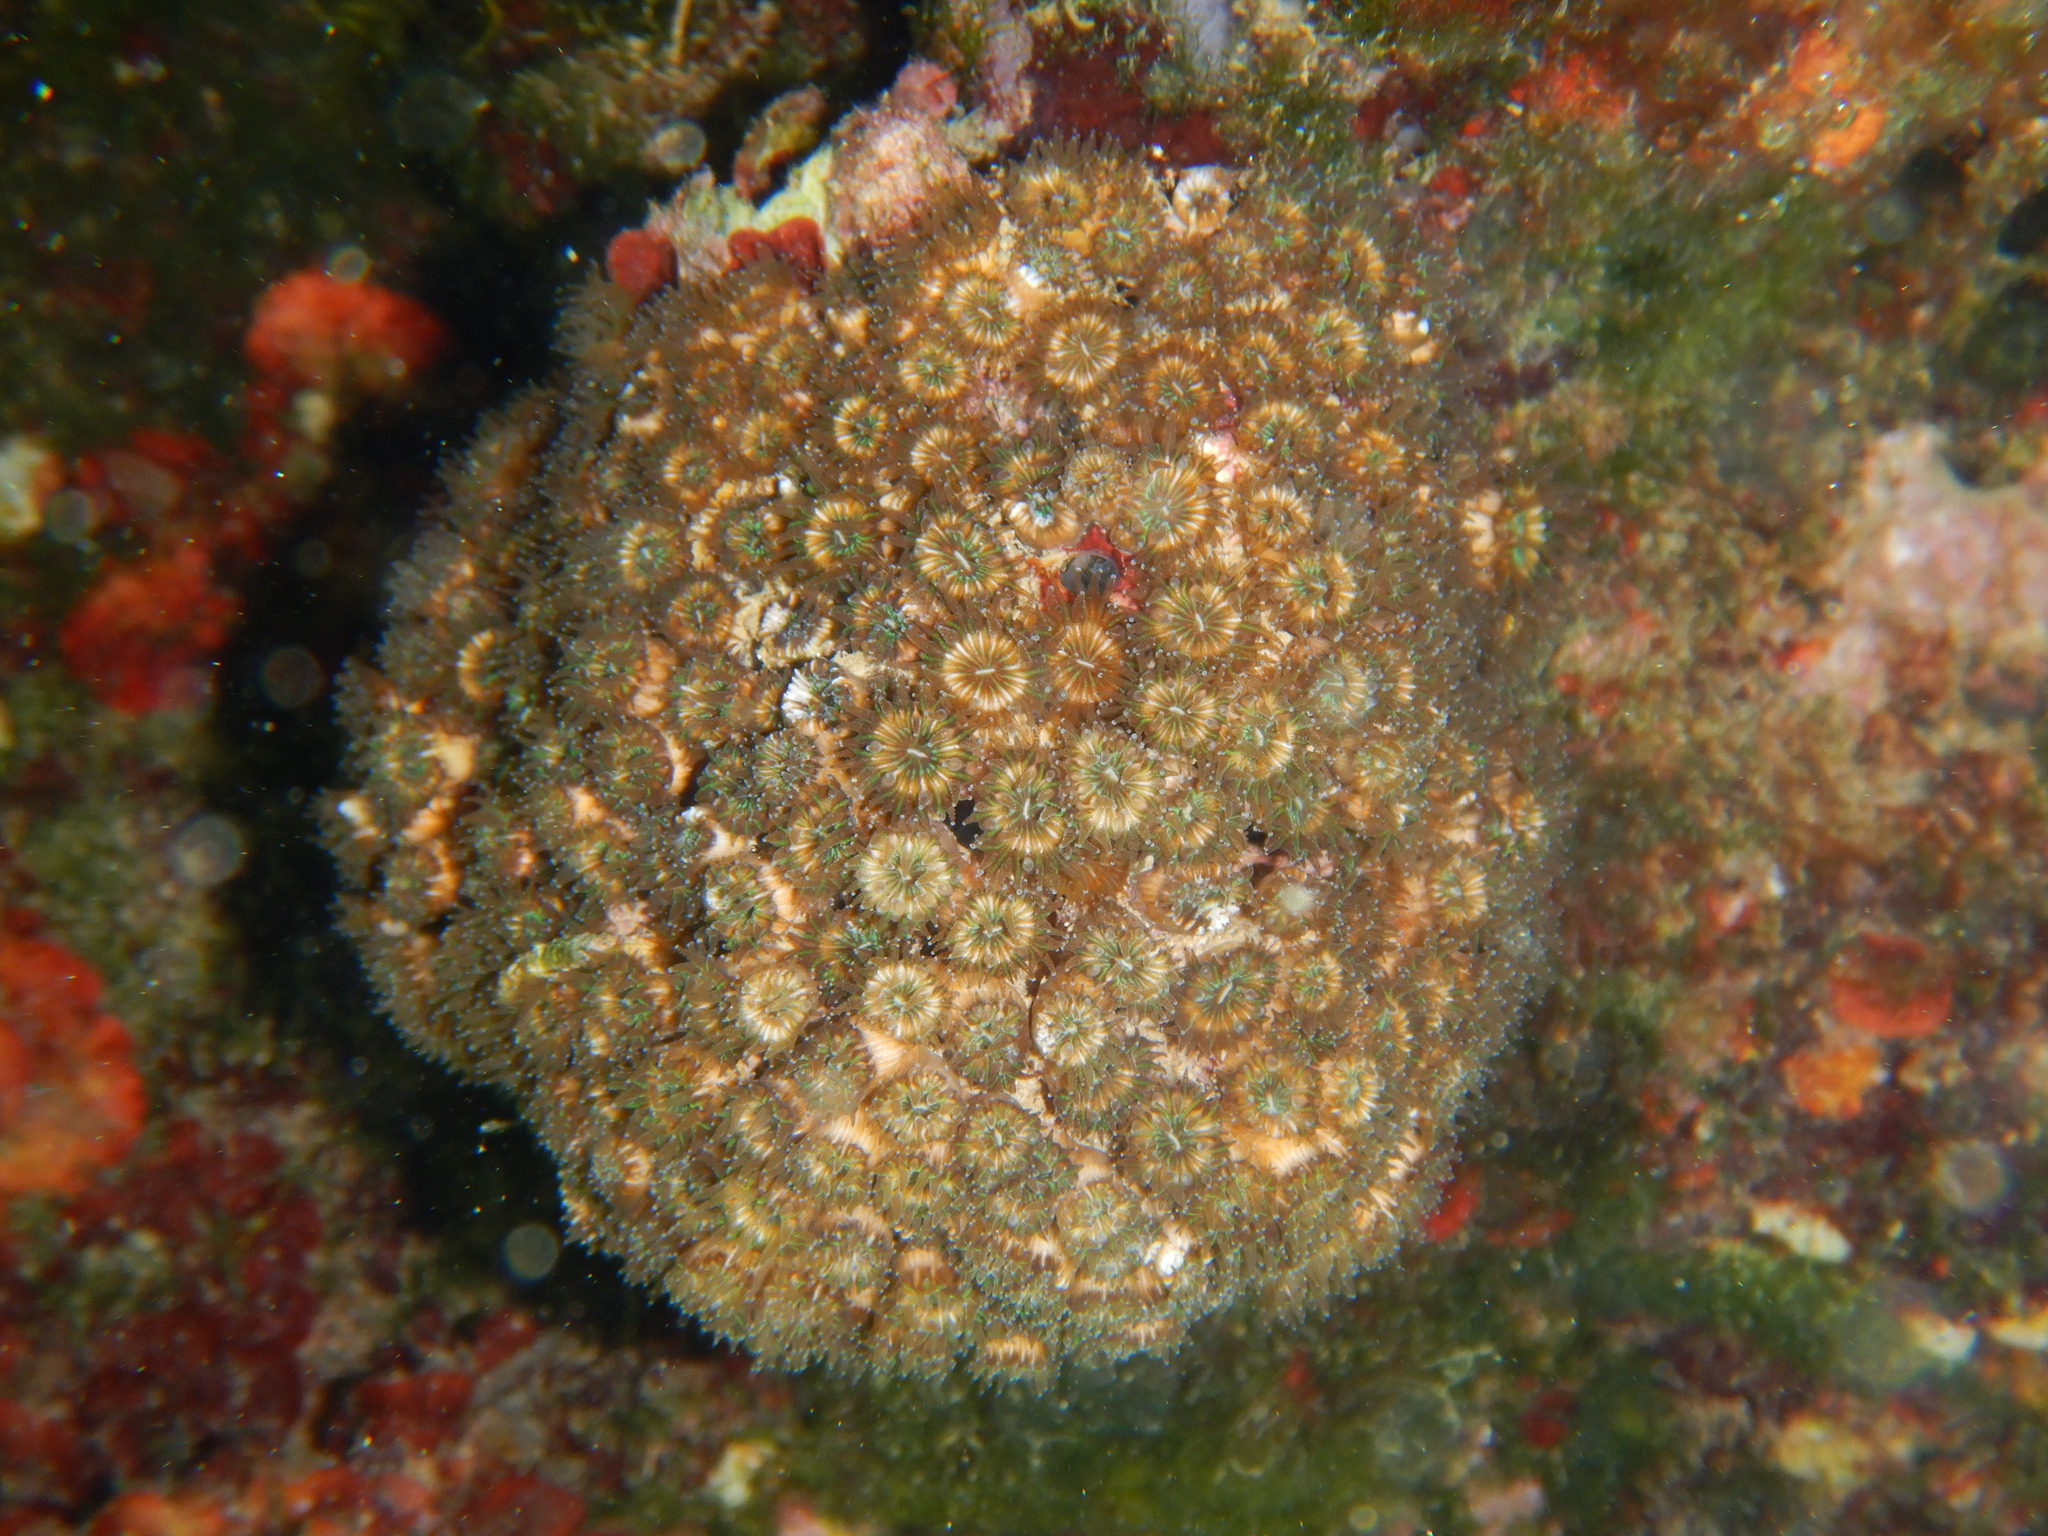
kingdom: Animalia
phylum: Cnidaria
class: Anthozoa
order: Scleractinia
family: Cladocoridae
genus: Cladocora
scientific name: Cladocora caespitosa
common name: Cladocora
